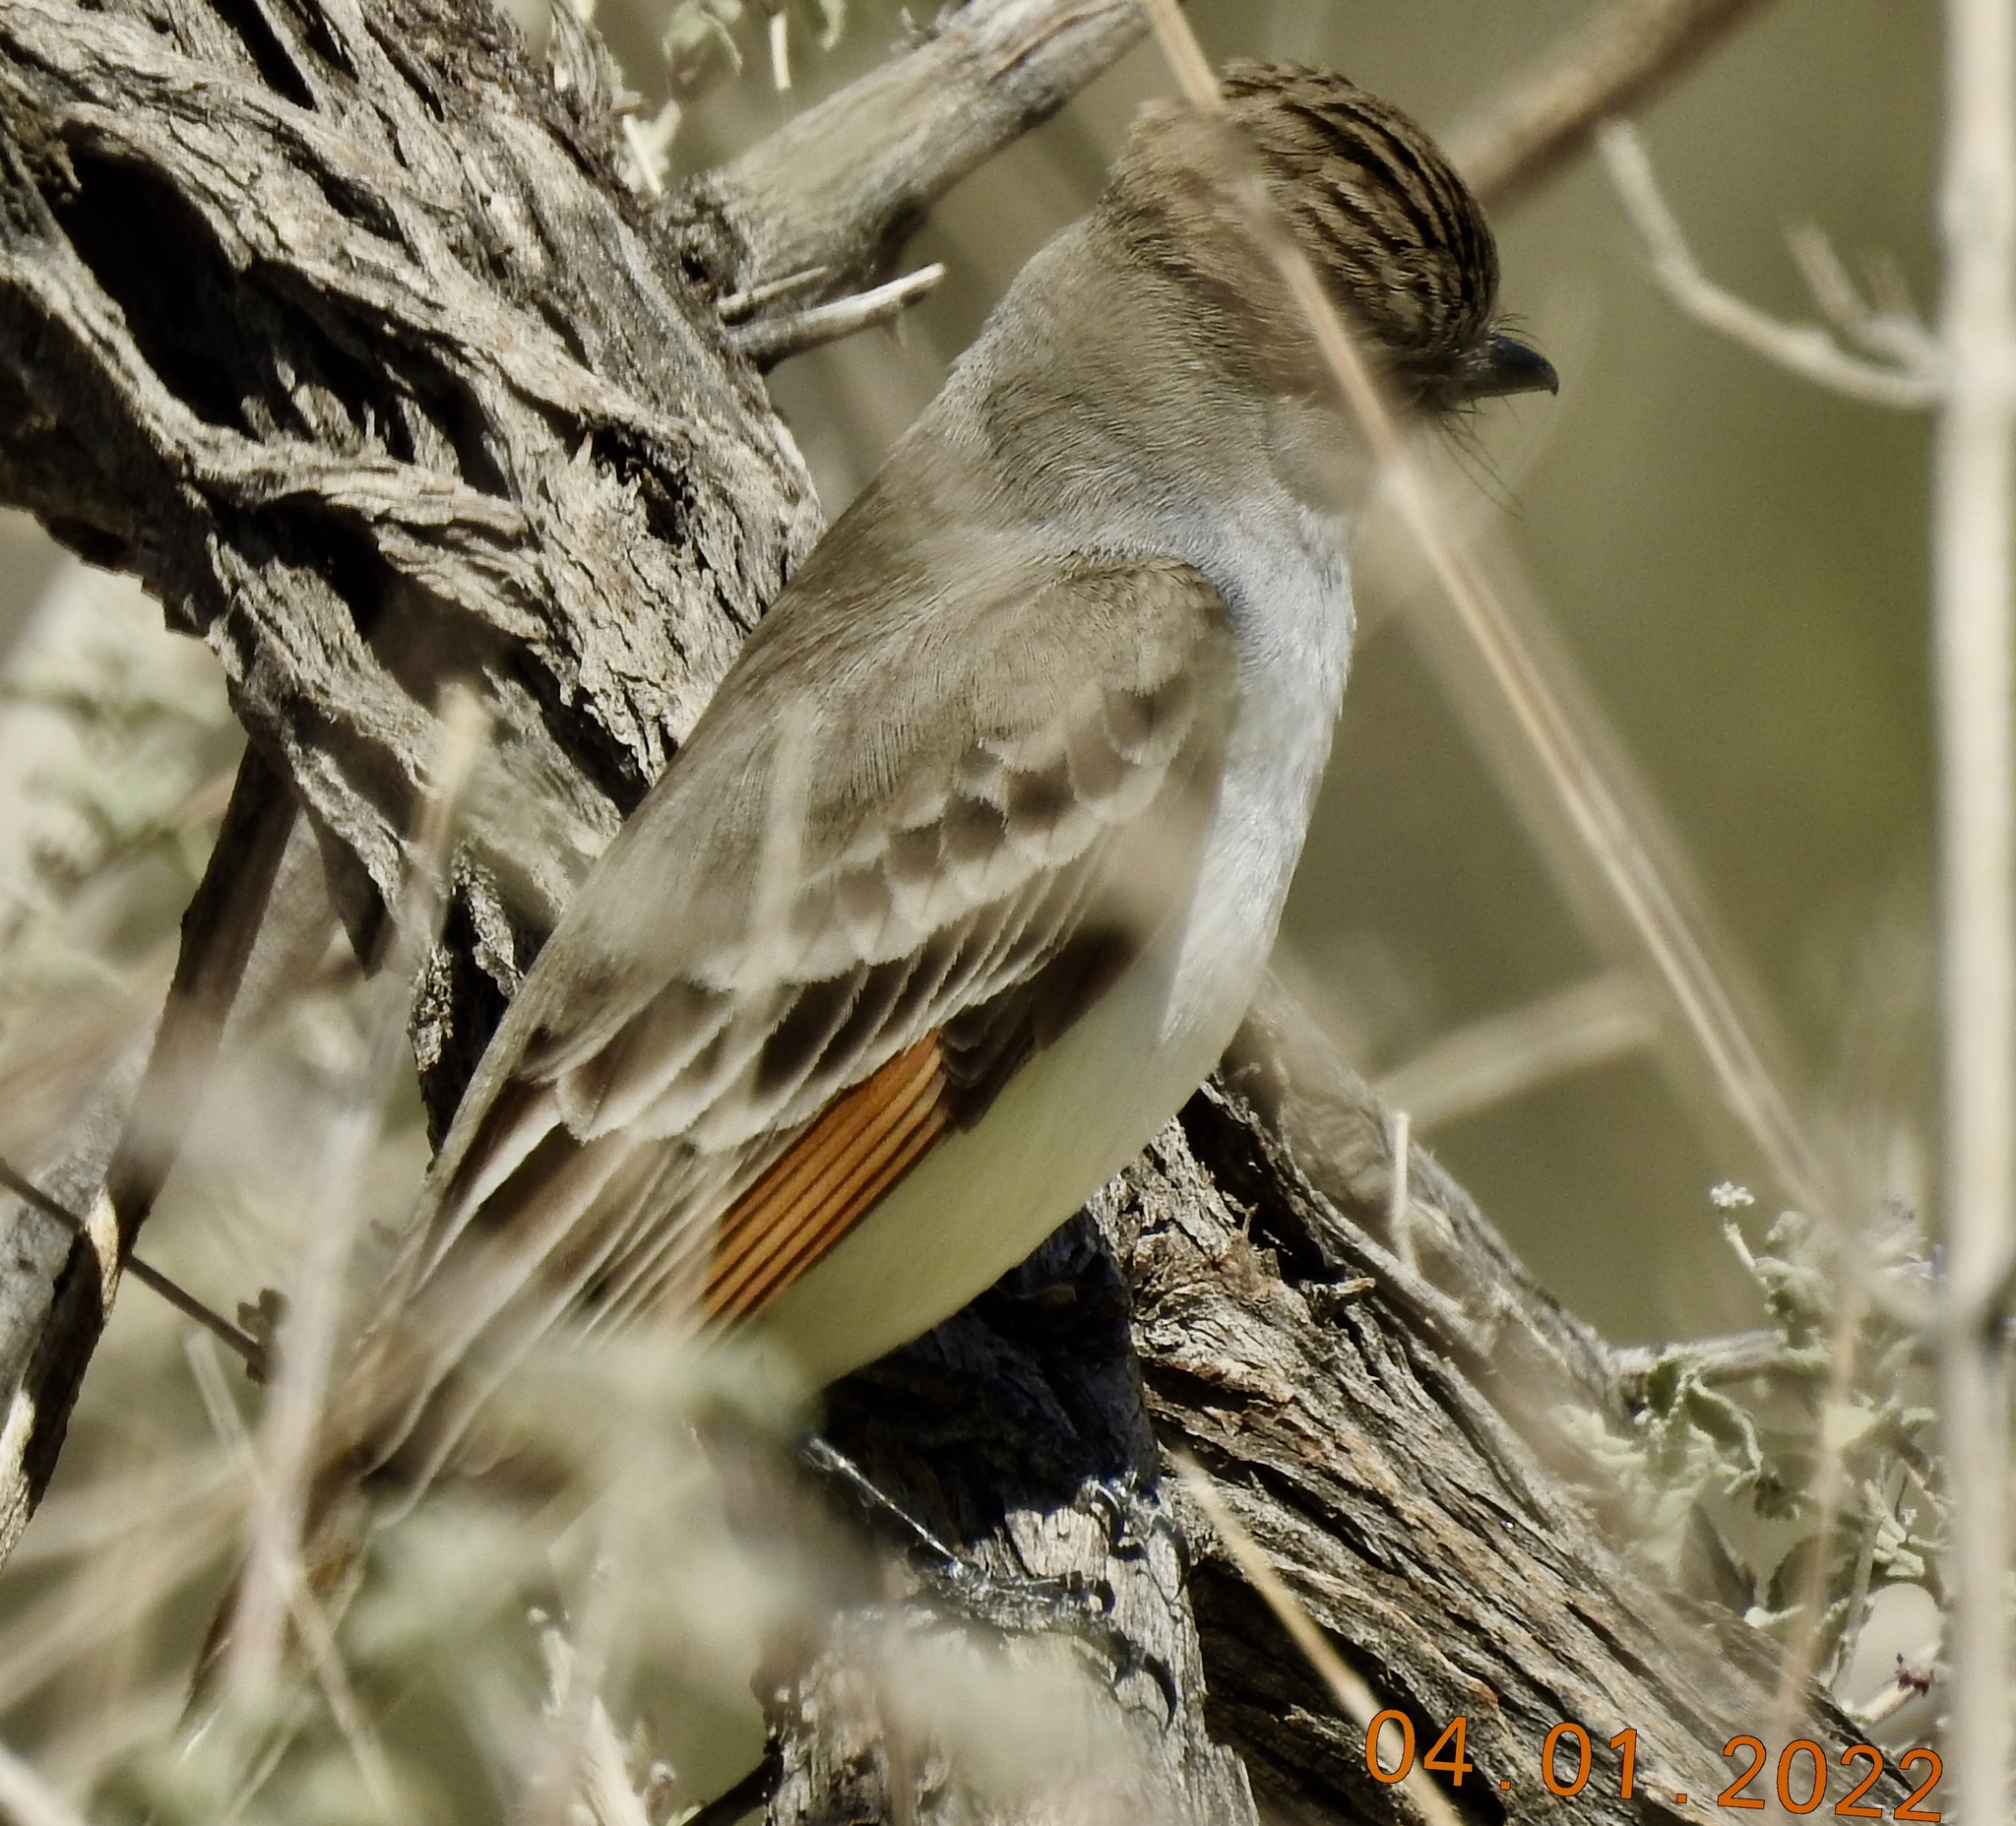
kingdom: Animalia
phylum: Chordata
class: Aves
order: Passeriformes
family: Tyrannidae
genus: Myiarchus
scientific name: Myiarchus cinerascens
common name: Ash-throated flycatcher
